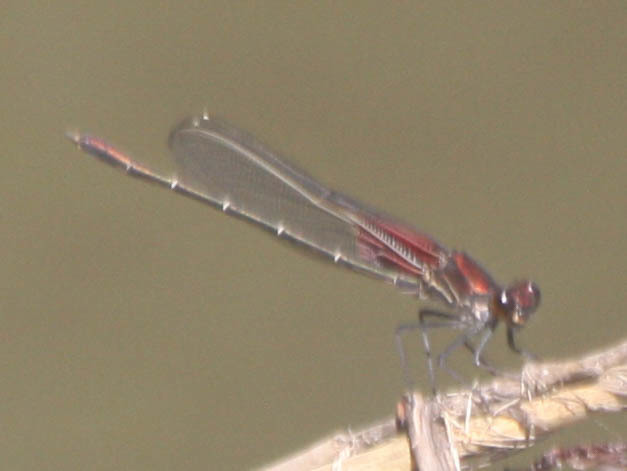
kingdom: Animalia
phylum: Arthropoda
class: Insecta
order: Odonata
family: Calopterygidae
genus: Hetaerina
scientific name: Hetaerina americana
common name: American rubyspot
